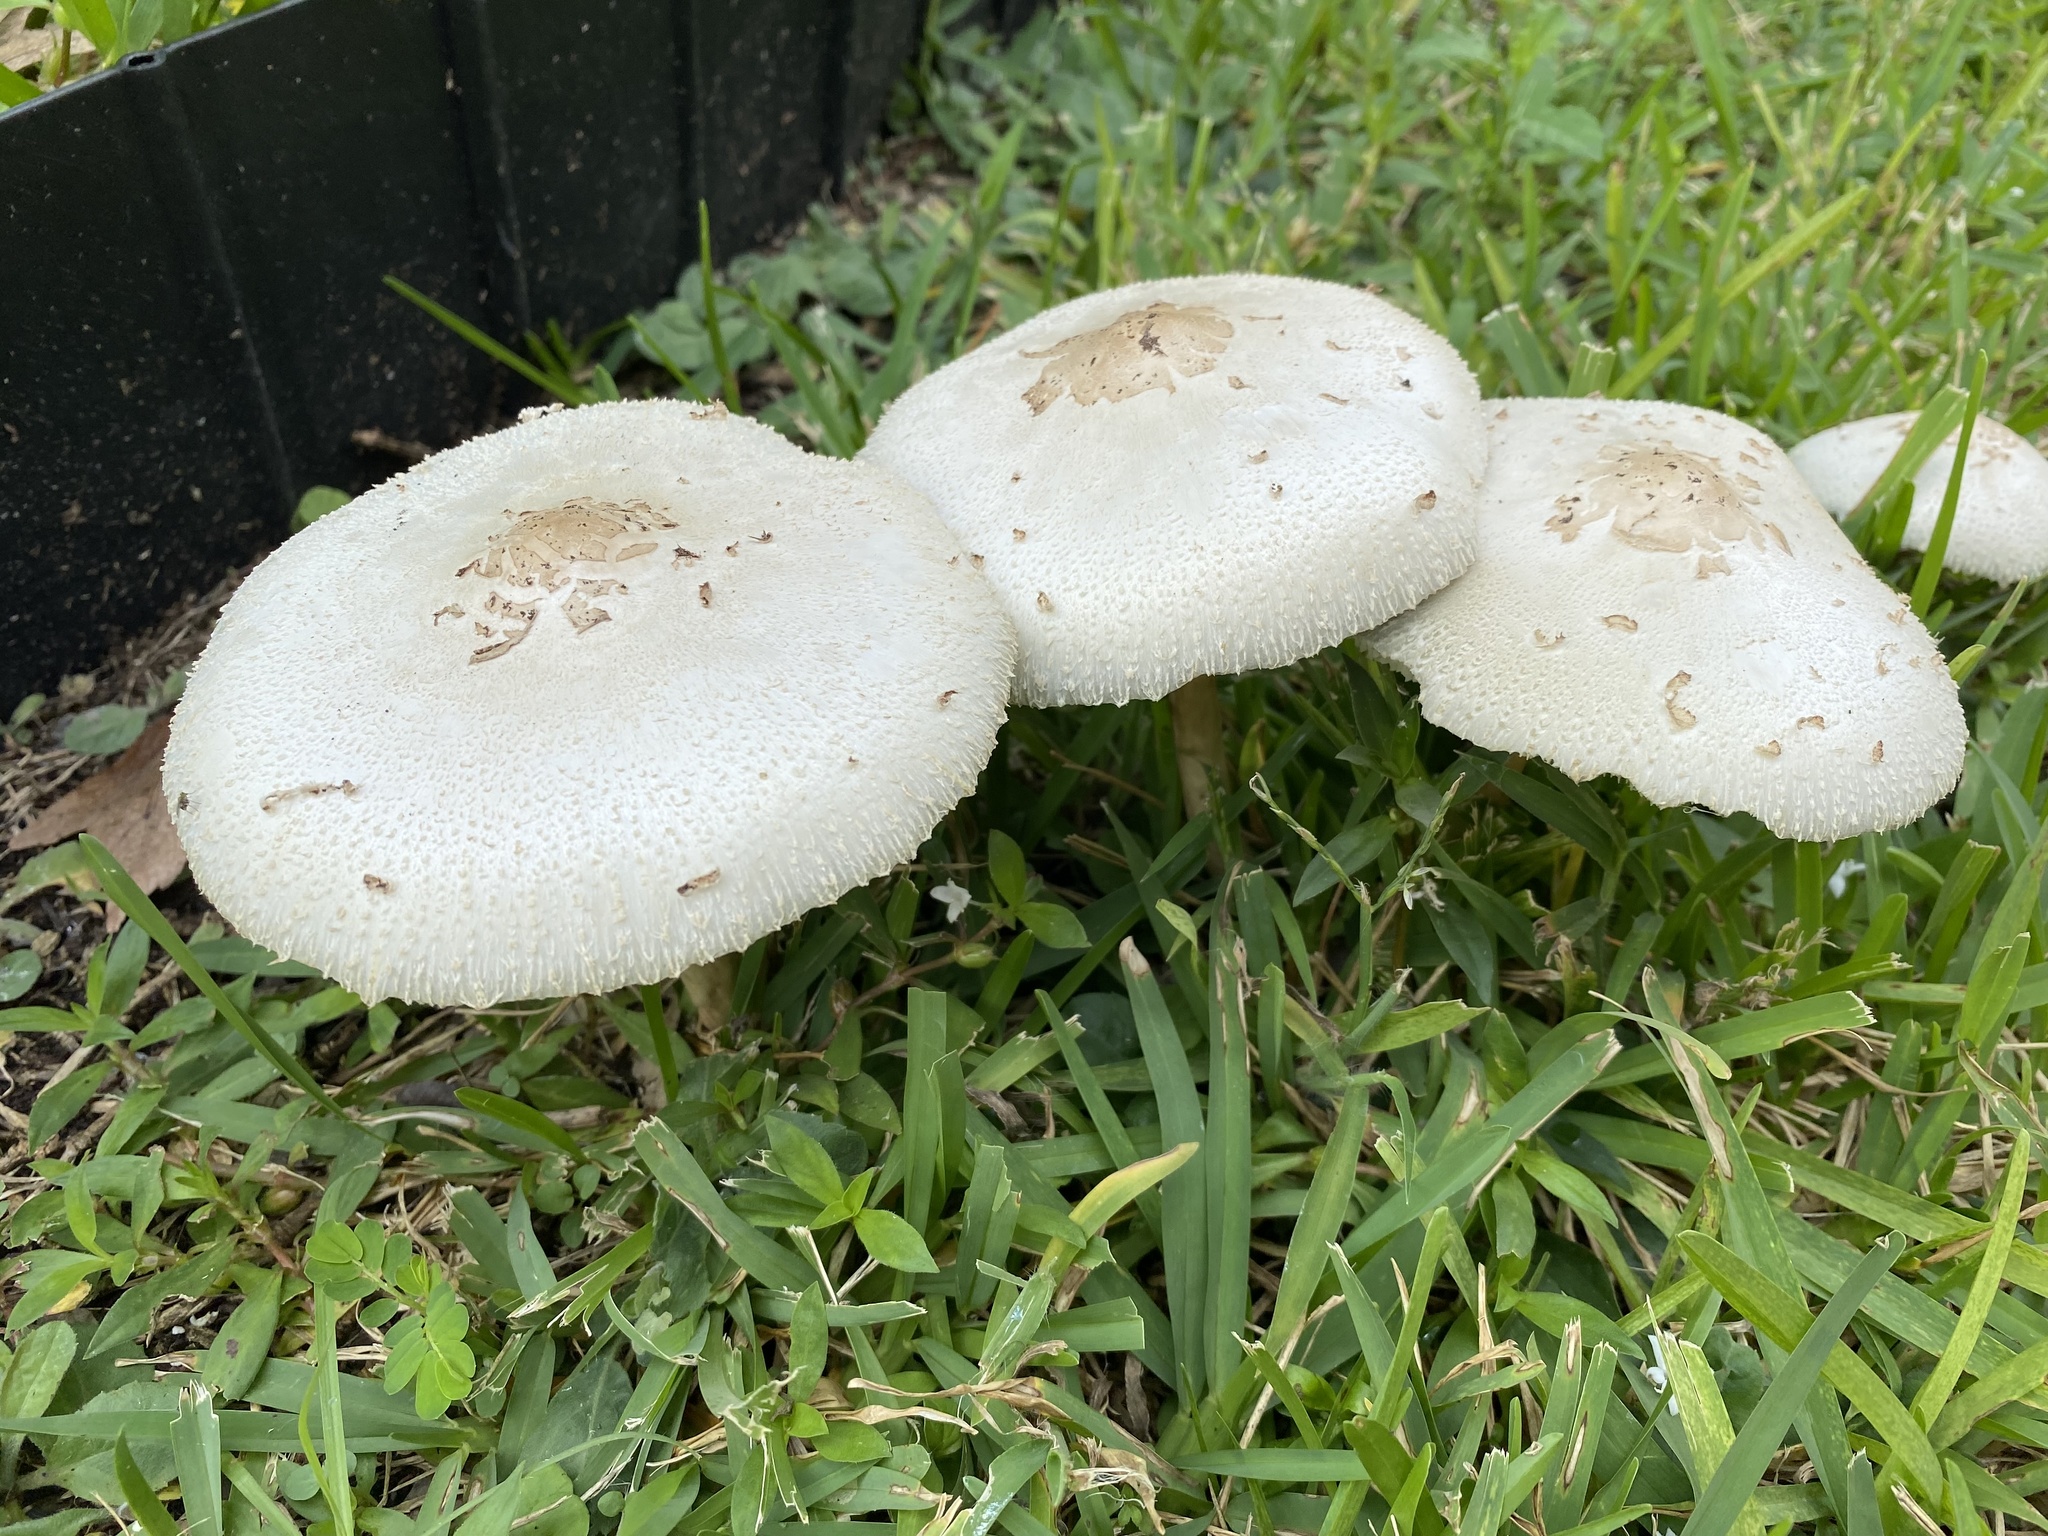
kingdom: Fungi
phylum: Basidiomycota
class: Agaricomycetes
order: Agaricales
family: Agaricaceae
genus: Chlorophyllum
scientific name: Chlorophyllum molybdites
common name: False parasol
